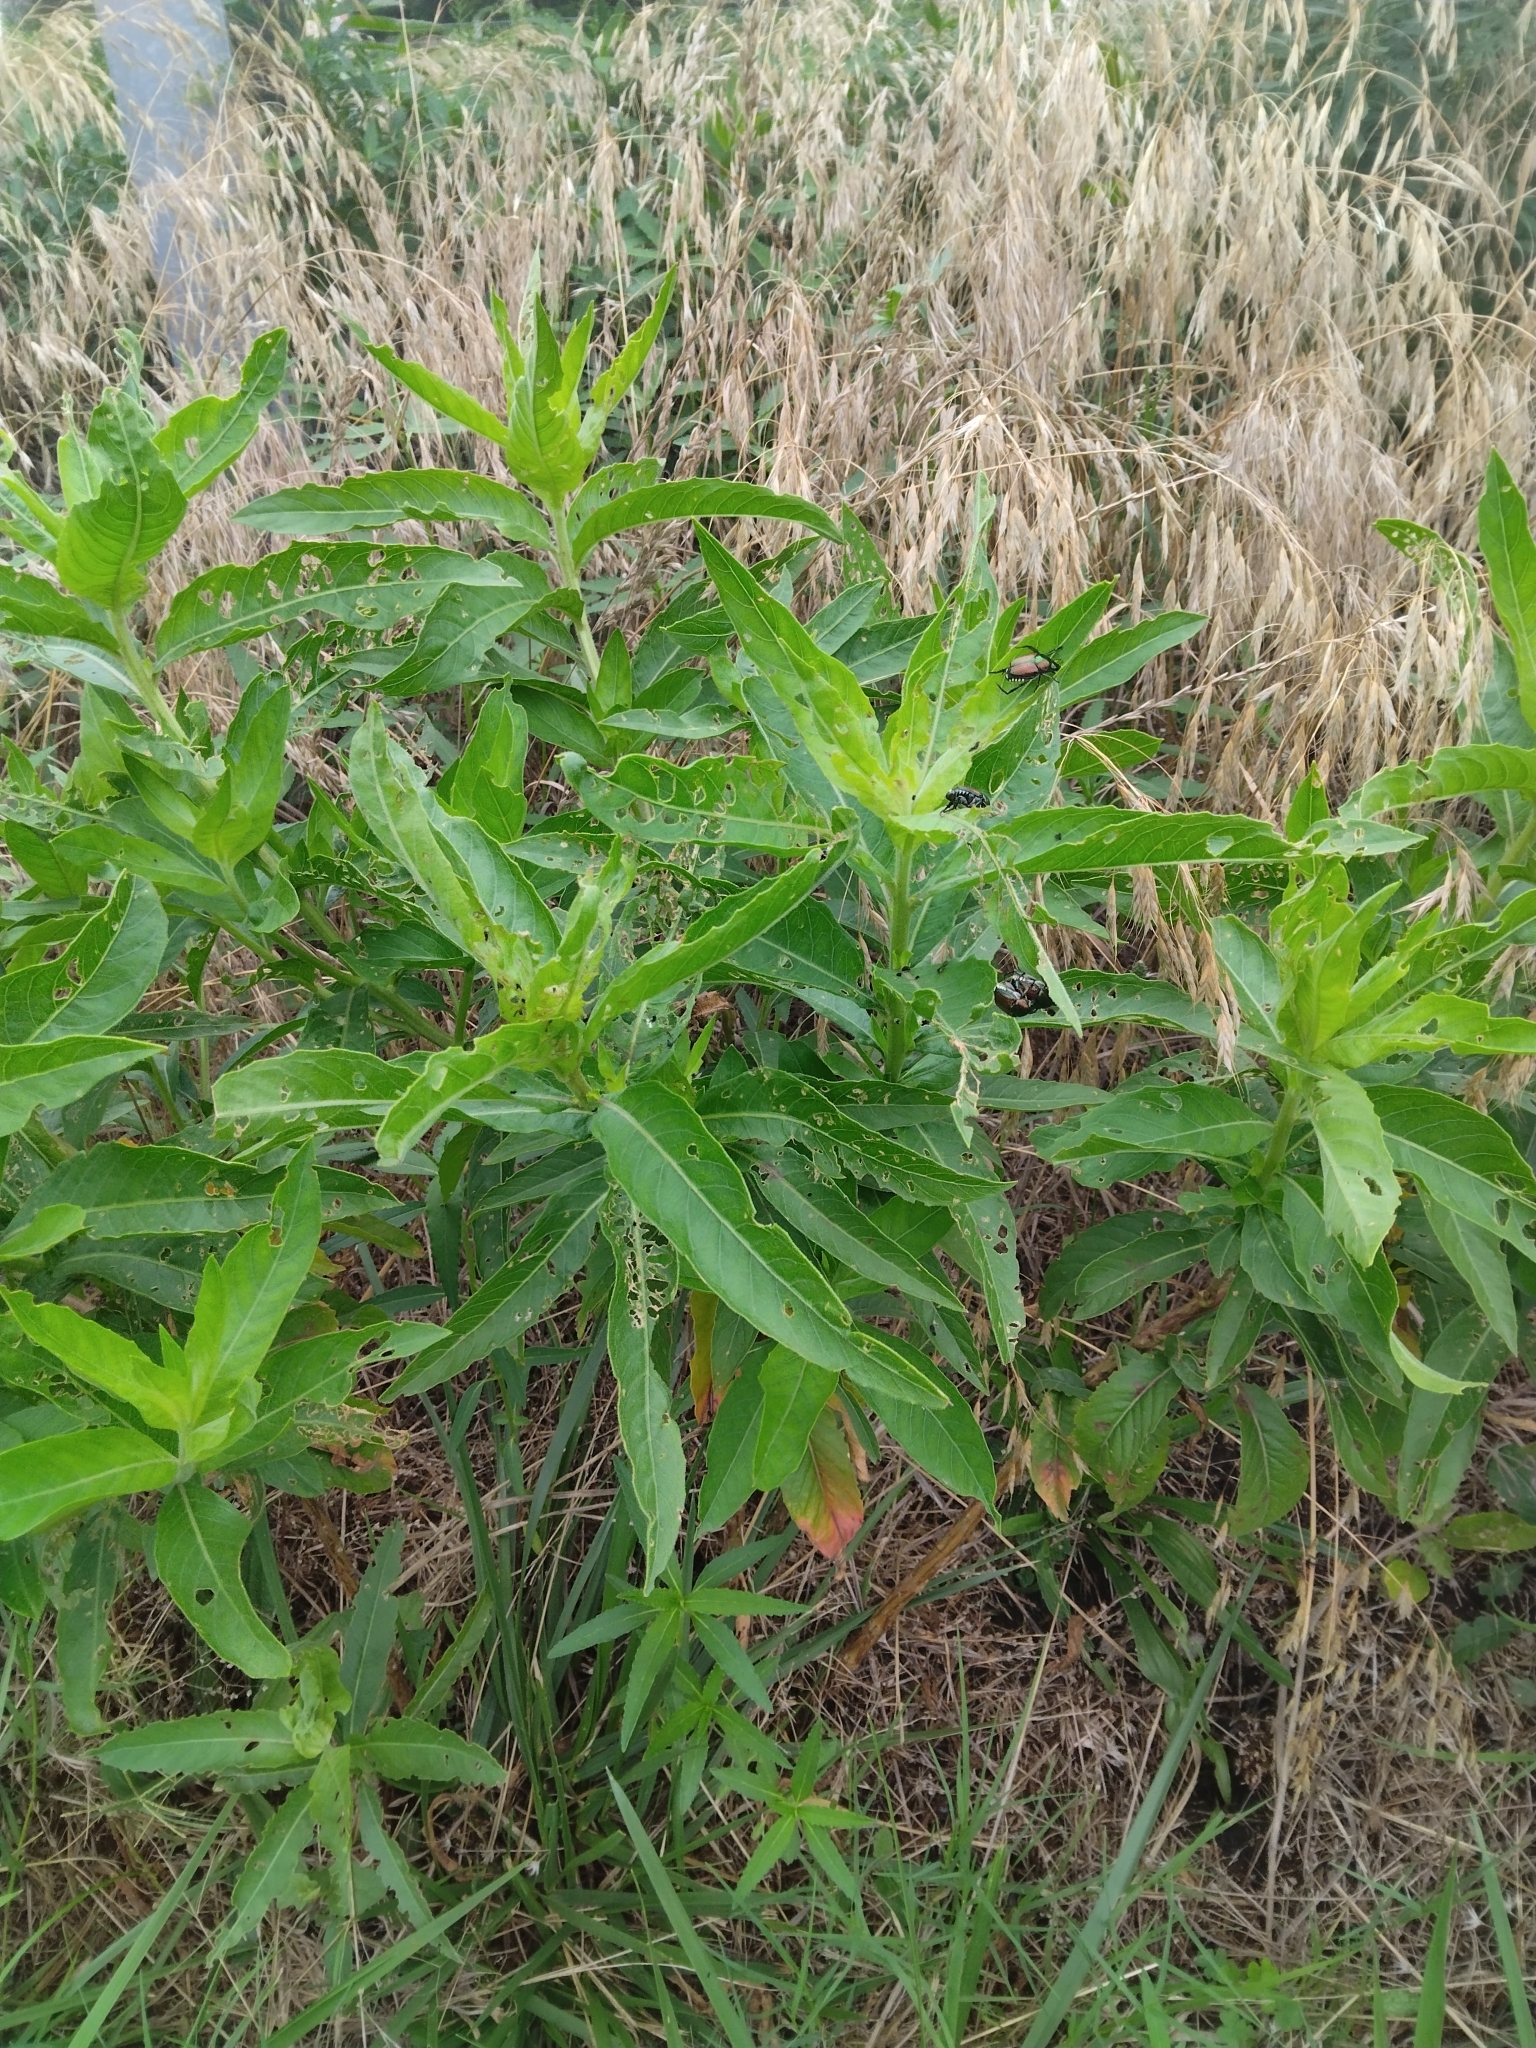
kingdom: Animalia
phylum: Arthropoda
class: Insecta
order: Coleoptera
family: Scarabaeidae
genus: Popillia
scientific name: Popillia japonica
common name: Japanese beetle
